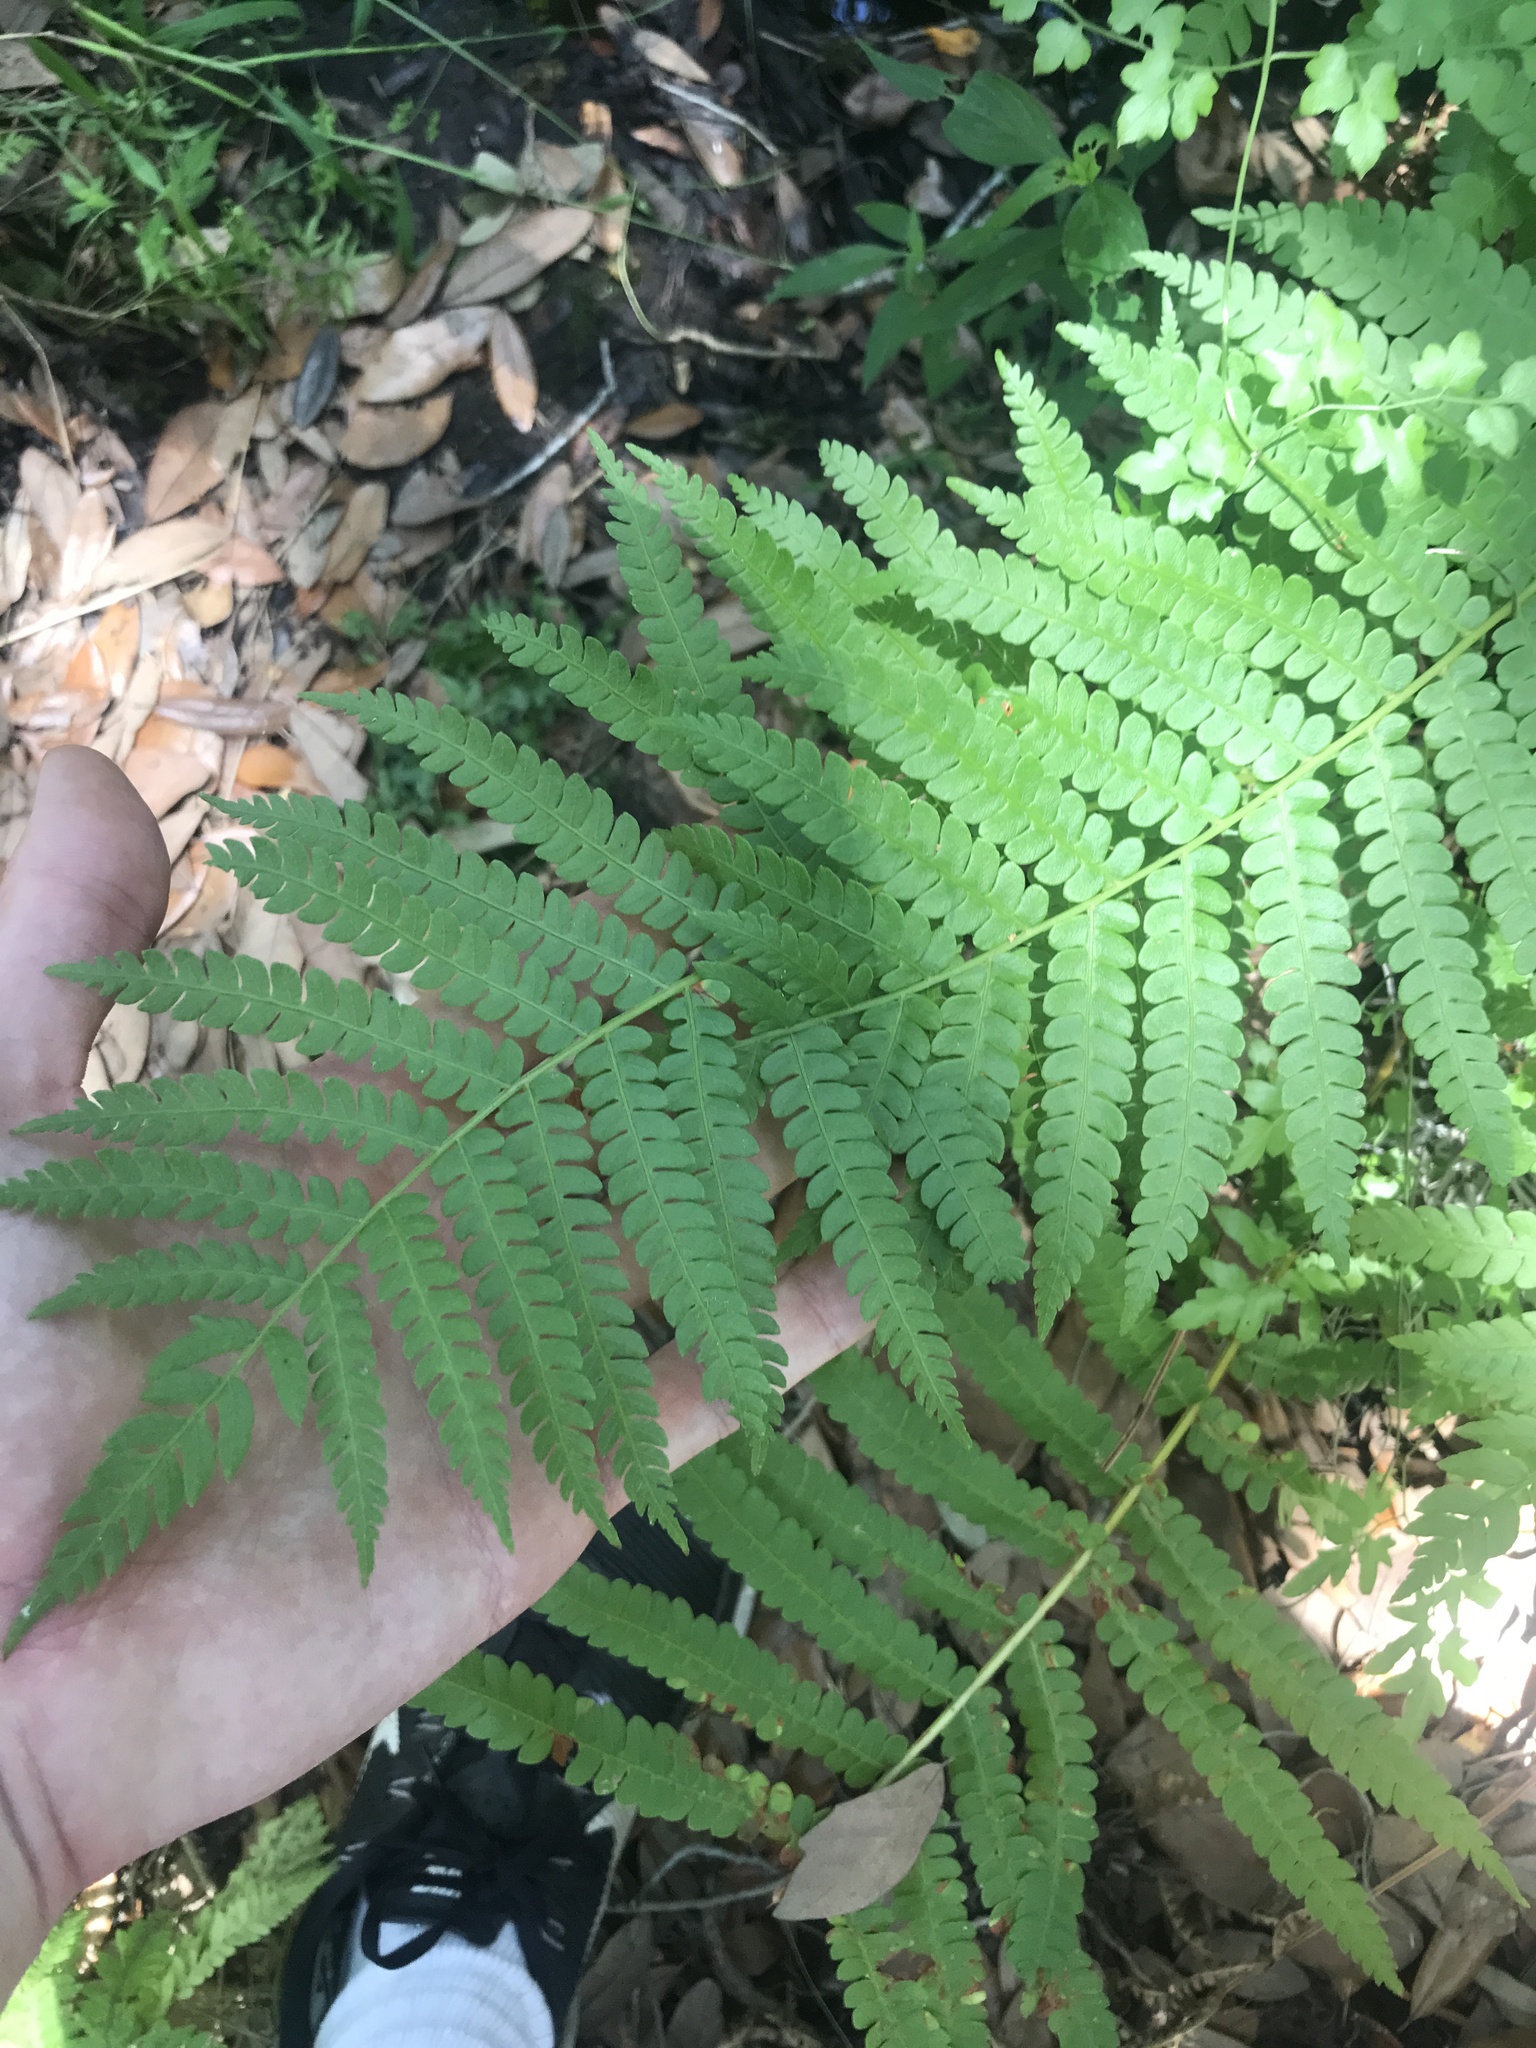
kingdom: Plantae
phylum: Tracheophyta
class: Polypodiopsida
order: Osmundales
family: Osmundaceae
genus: Osmundastrum
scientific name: Osmundastrum cinnamomeum
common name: Cinnamon fern
